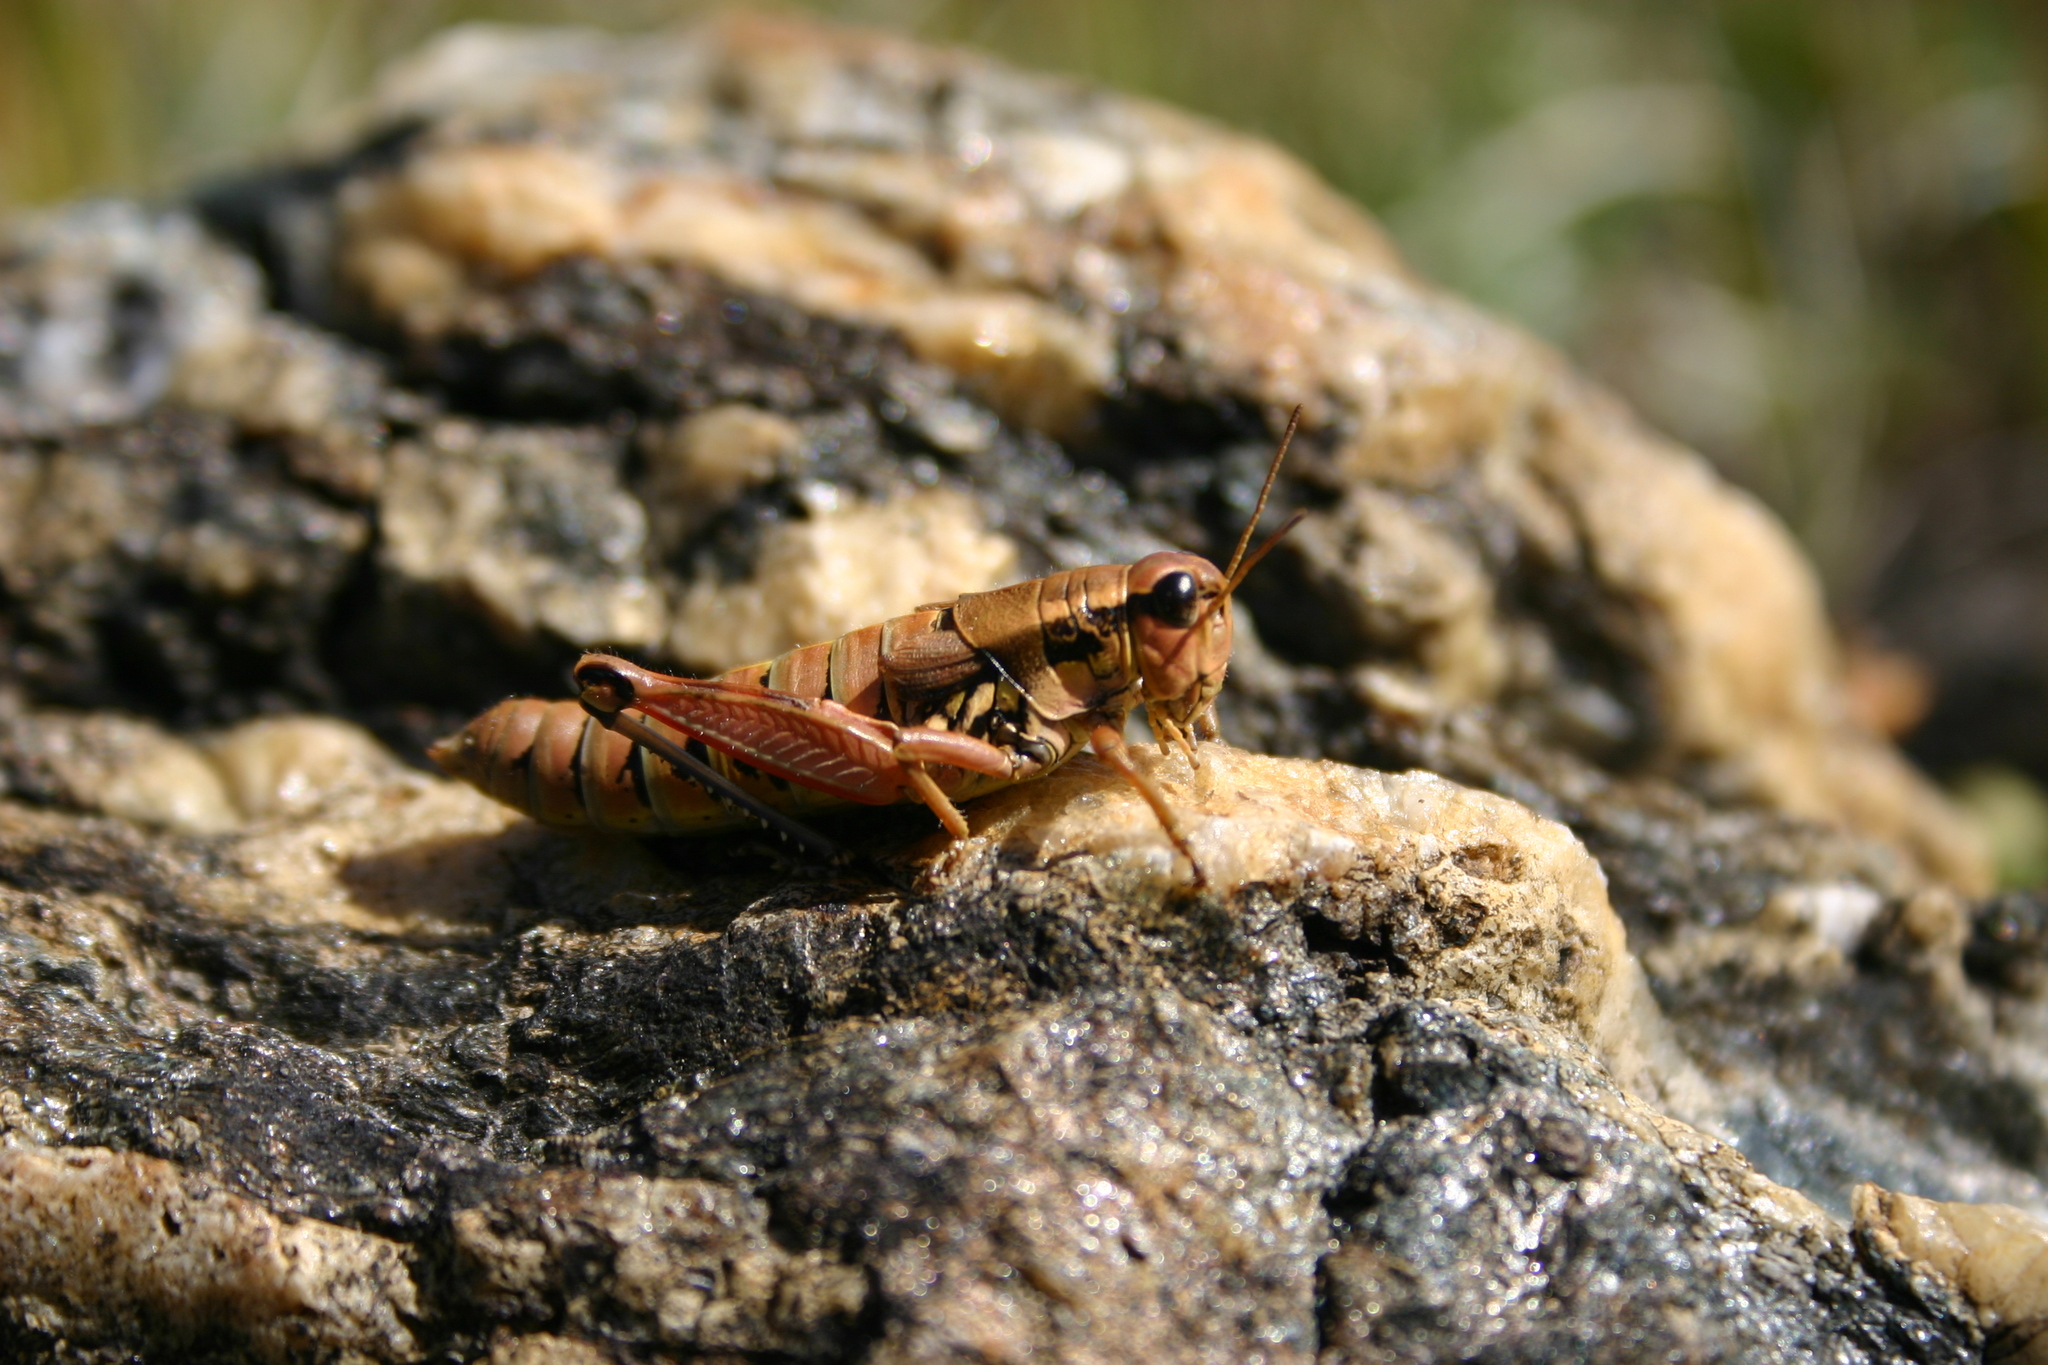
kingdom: Animalia
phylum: Arthropoda
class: Insecta
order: Orthoptera
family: Acrididae
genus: Podisma
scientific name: Podisma pedestris
